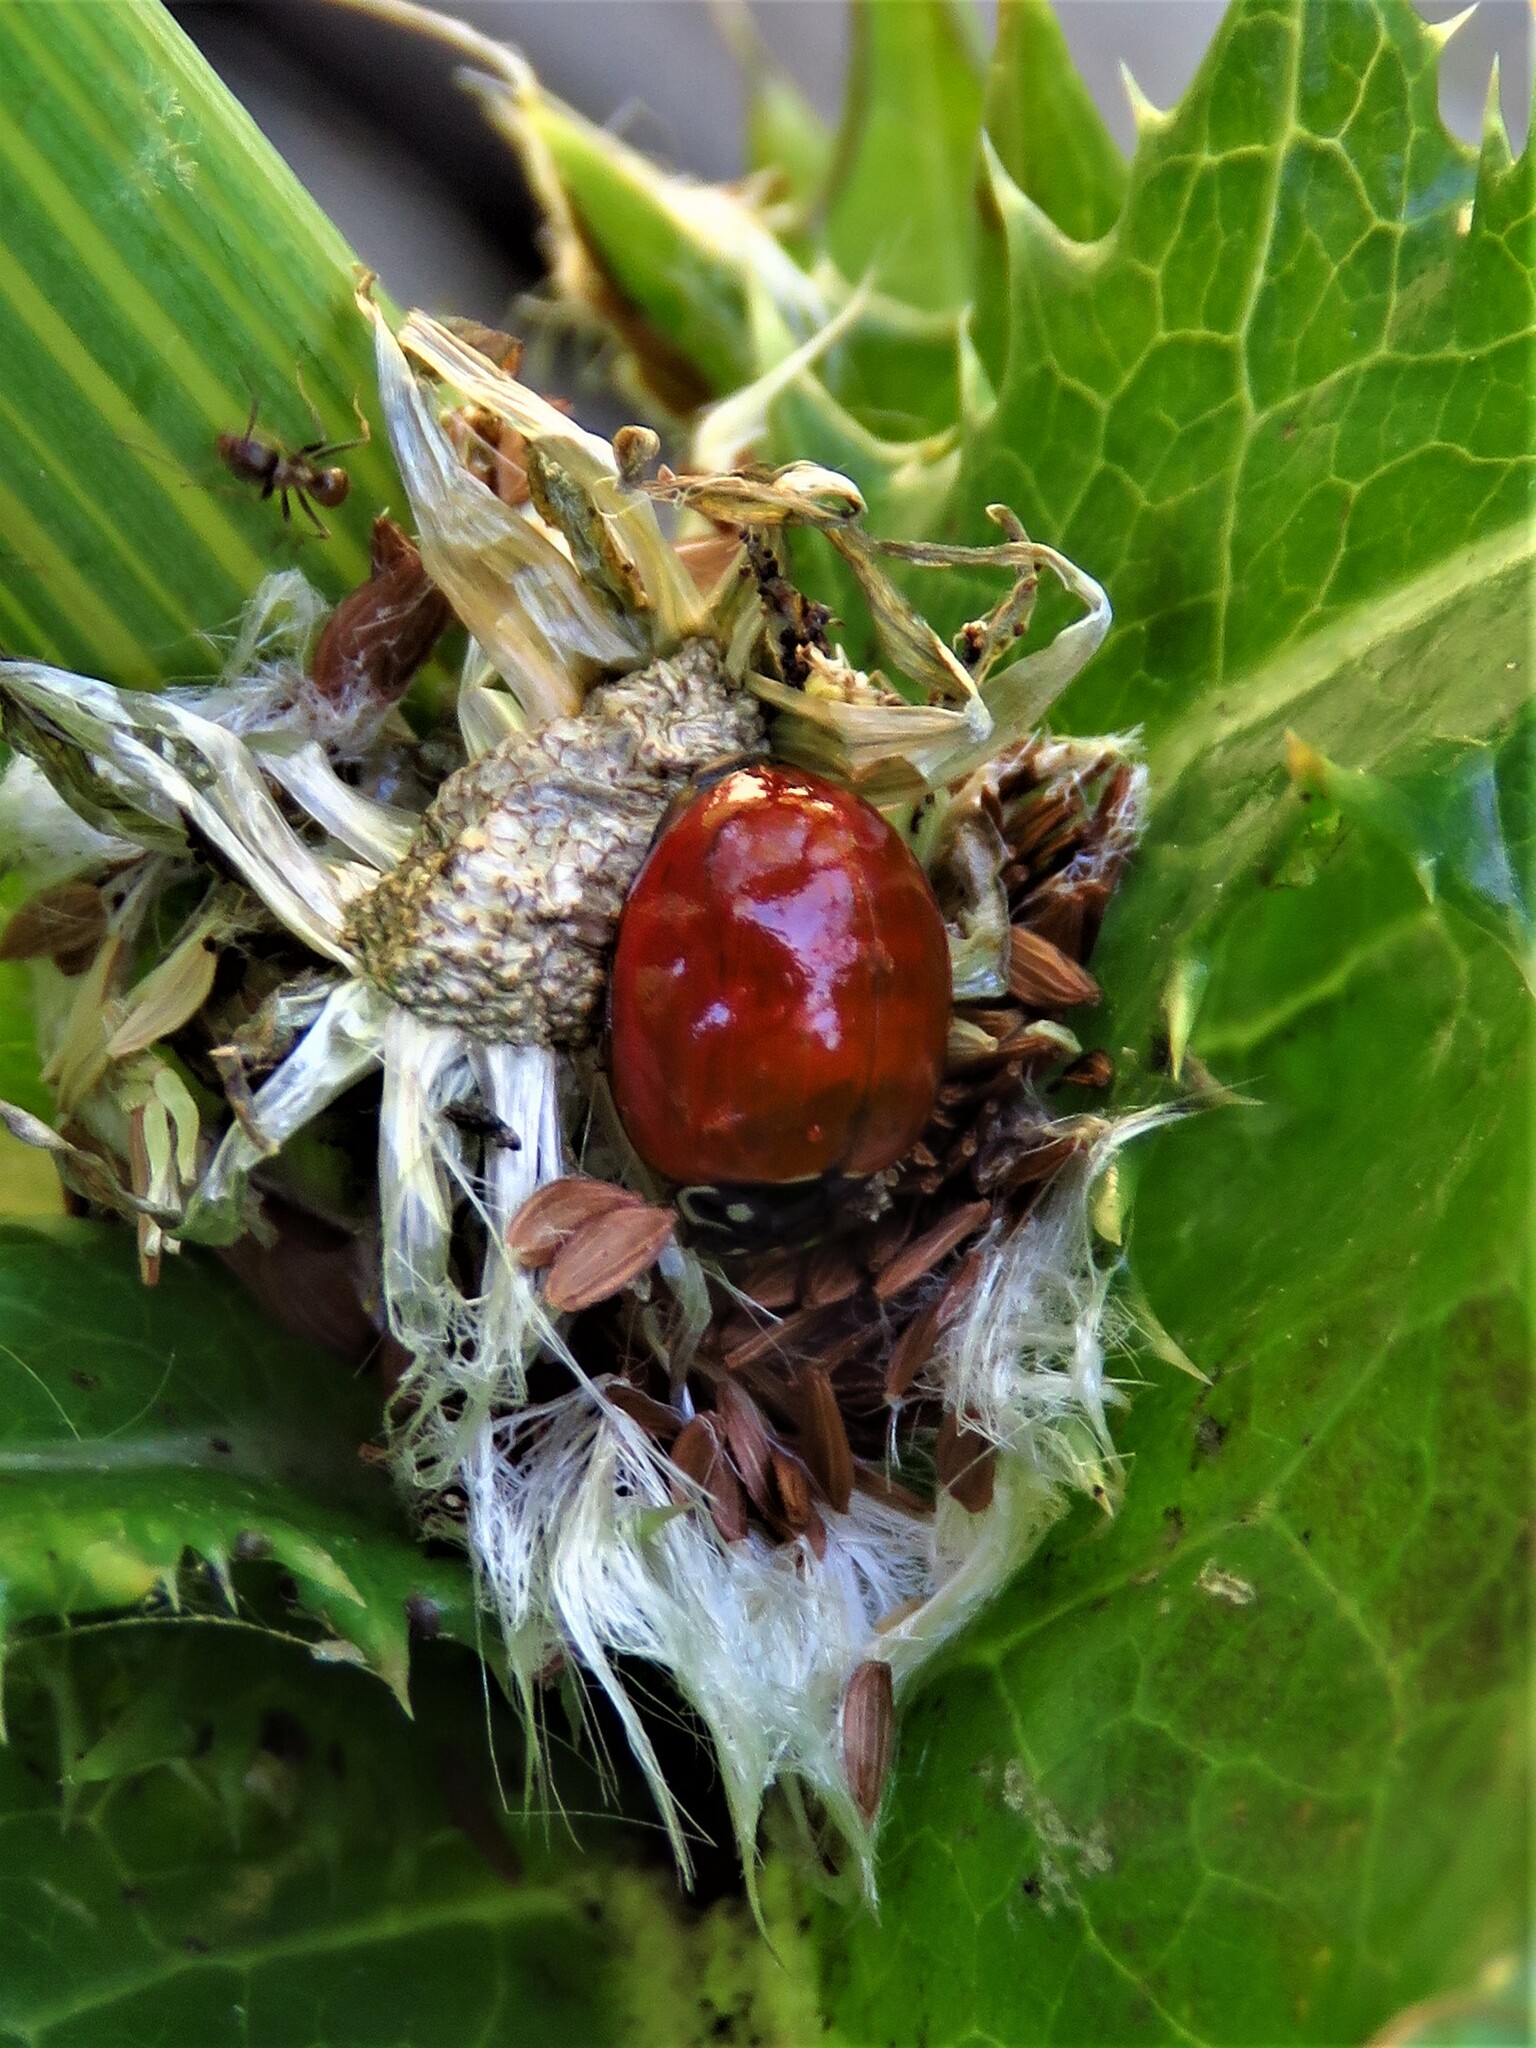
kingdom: Animalia
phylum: Arthropoda
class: Insecta
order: Coleoptera
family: Coccinellidae
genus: Cycloneda
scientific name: Cycloneda sanguinea
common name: Ladybird beetle
